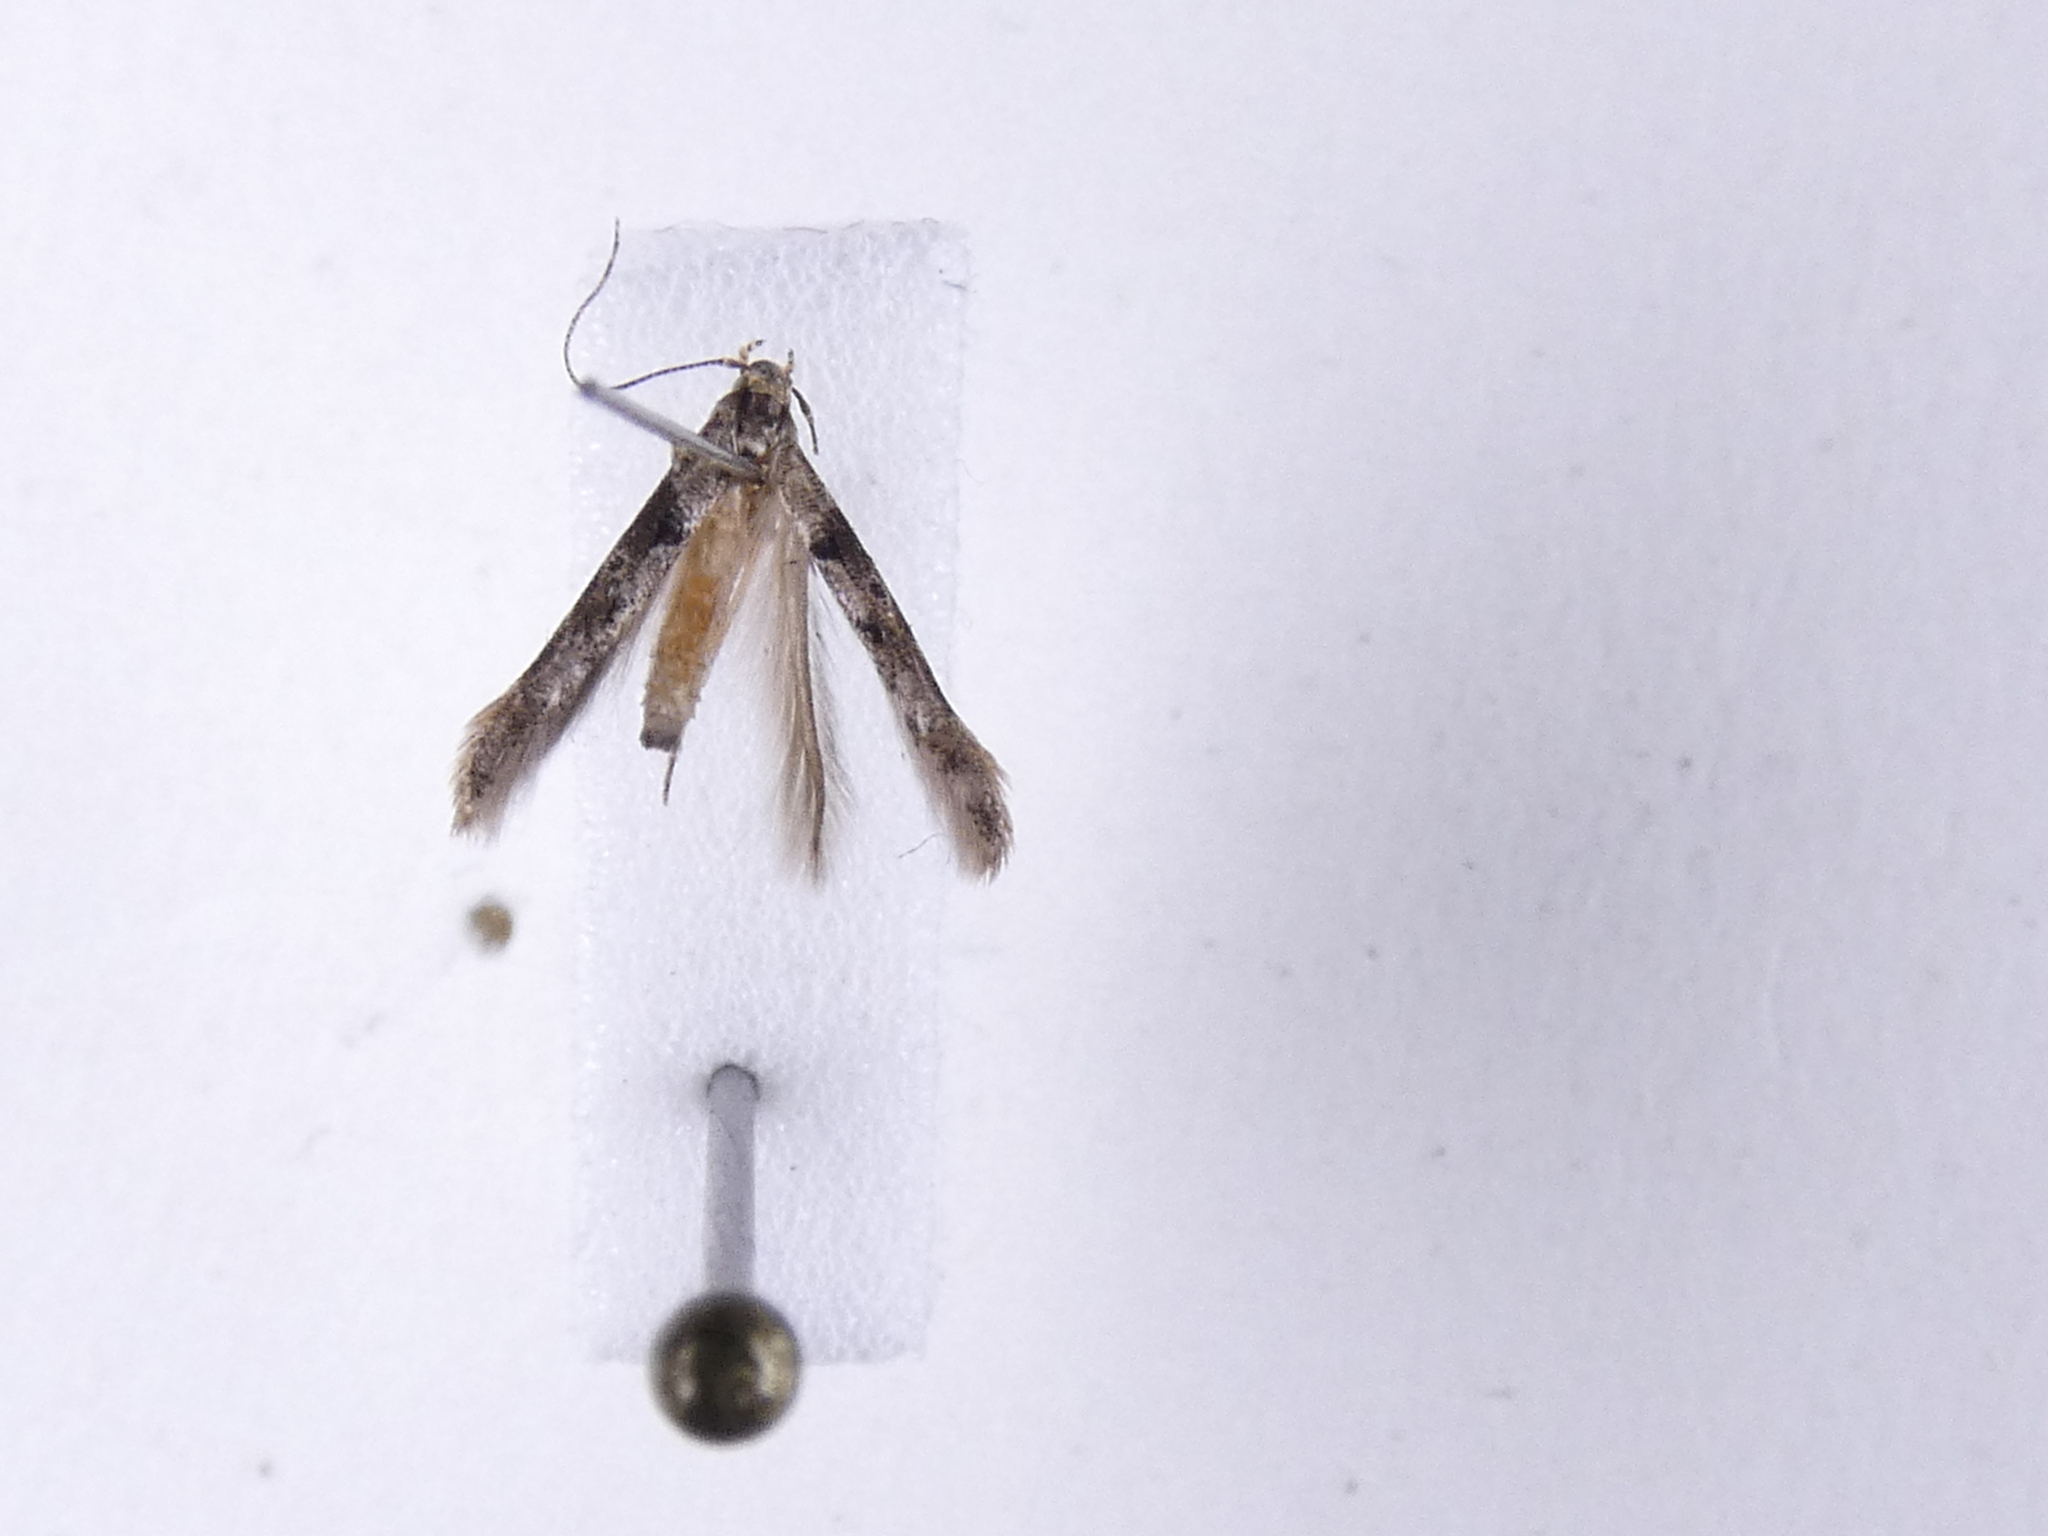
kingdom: Animalia
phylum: Arthropoda
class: Insecta
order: Lepidoptera
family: Elachistidae
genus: Microcolona
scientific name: Microcolona limodes
